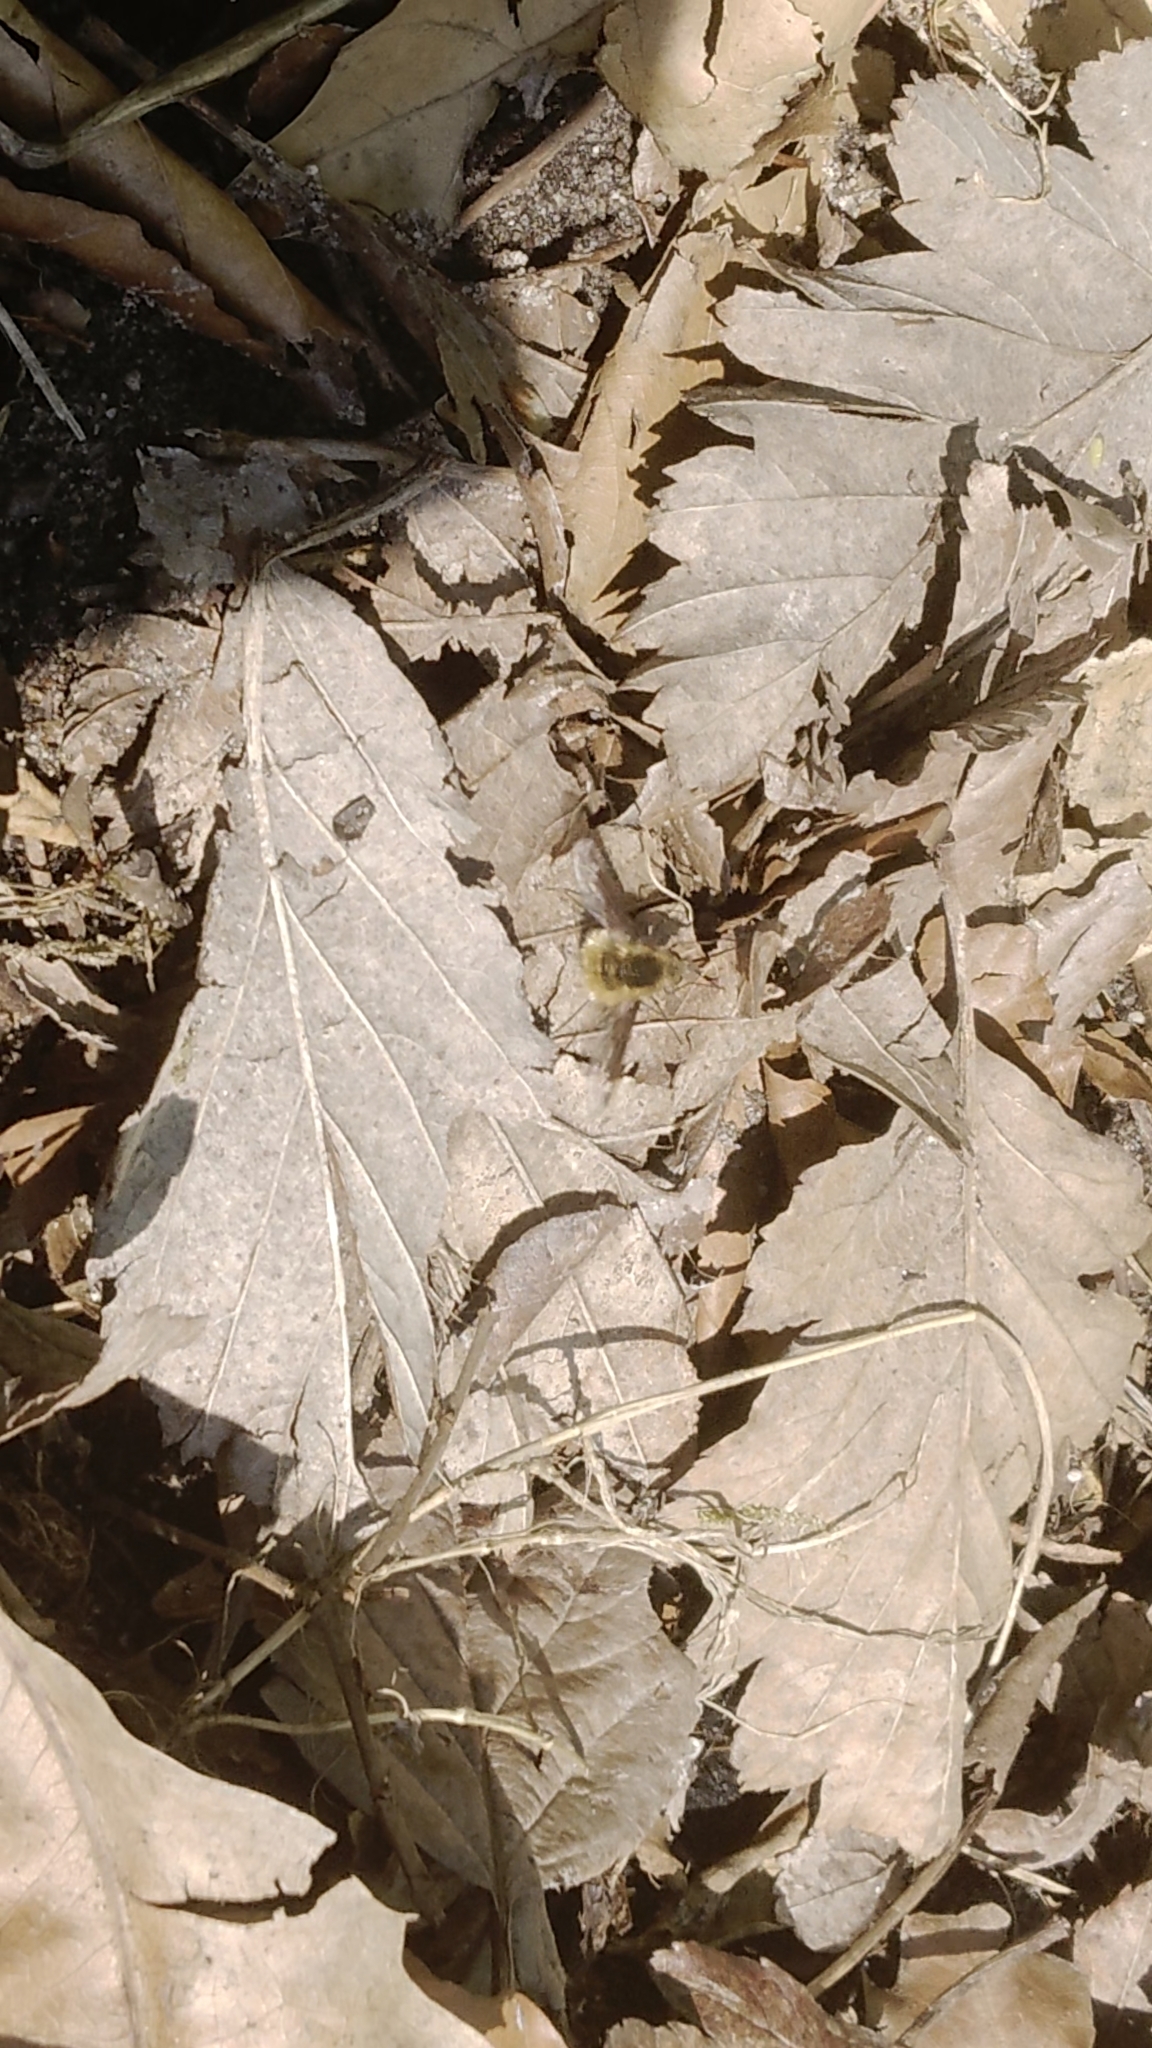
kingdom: Animalia
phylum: Arthropoda
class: Insecta
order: Diptera
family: Bombyliidae
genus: Bombylius
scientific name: Bombylius major
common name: Bee fly
